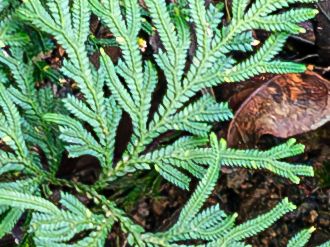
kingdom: Plantae
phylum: Tracheophyta
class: Lycopodiopsida
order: Selaginellales
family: Selaginellaceae
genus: Selaginella
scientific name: Selaginella hordeiformis
